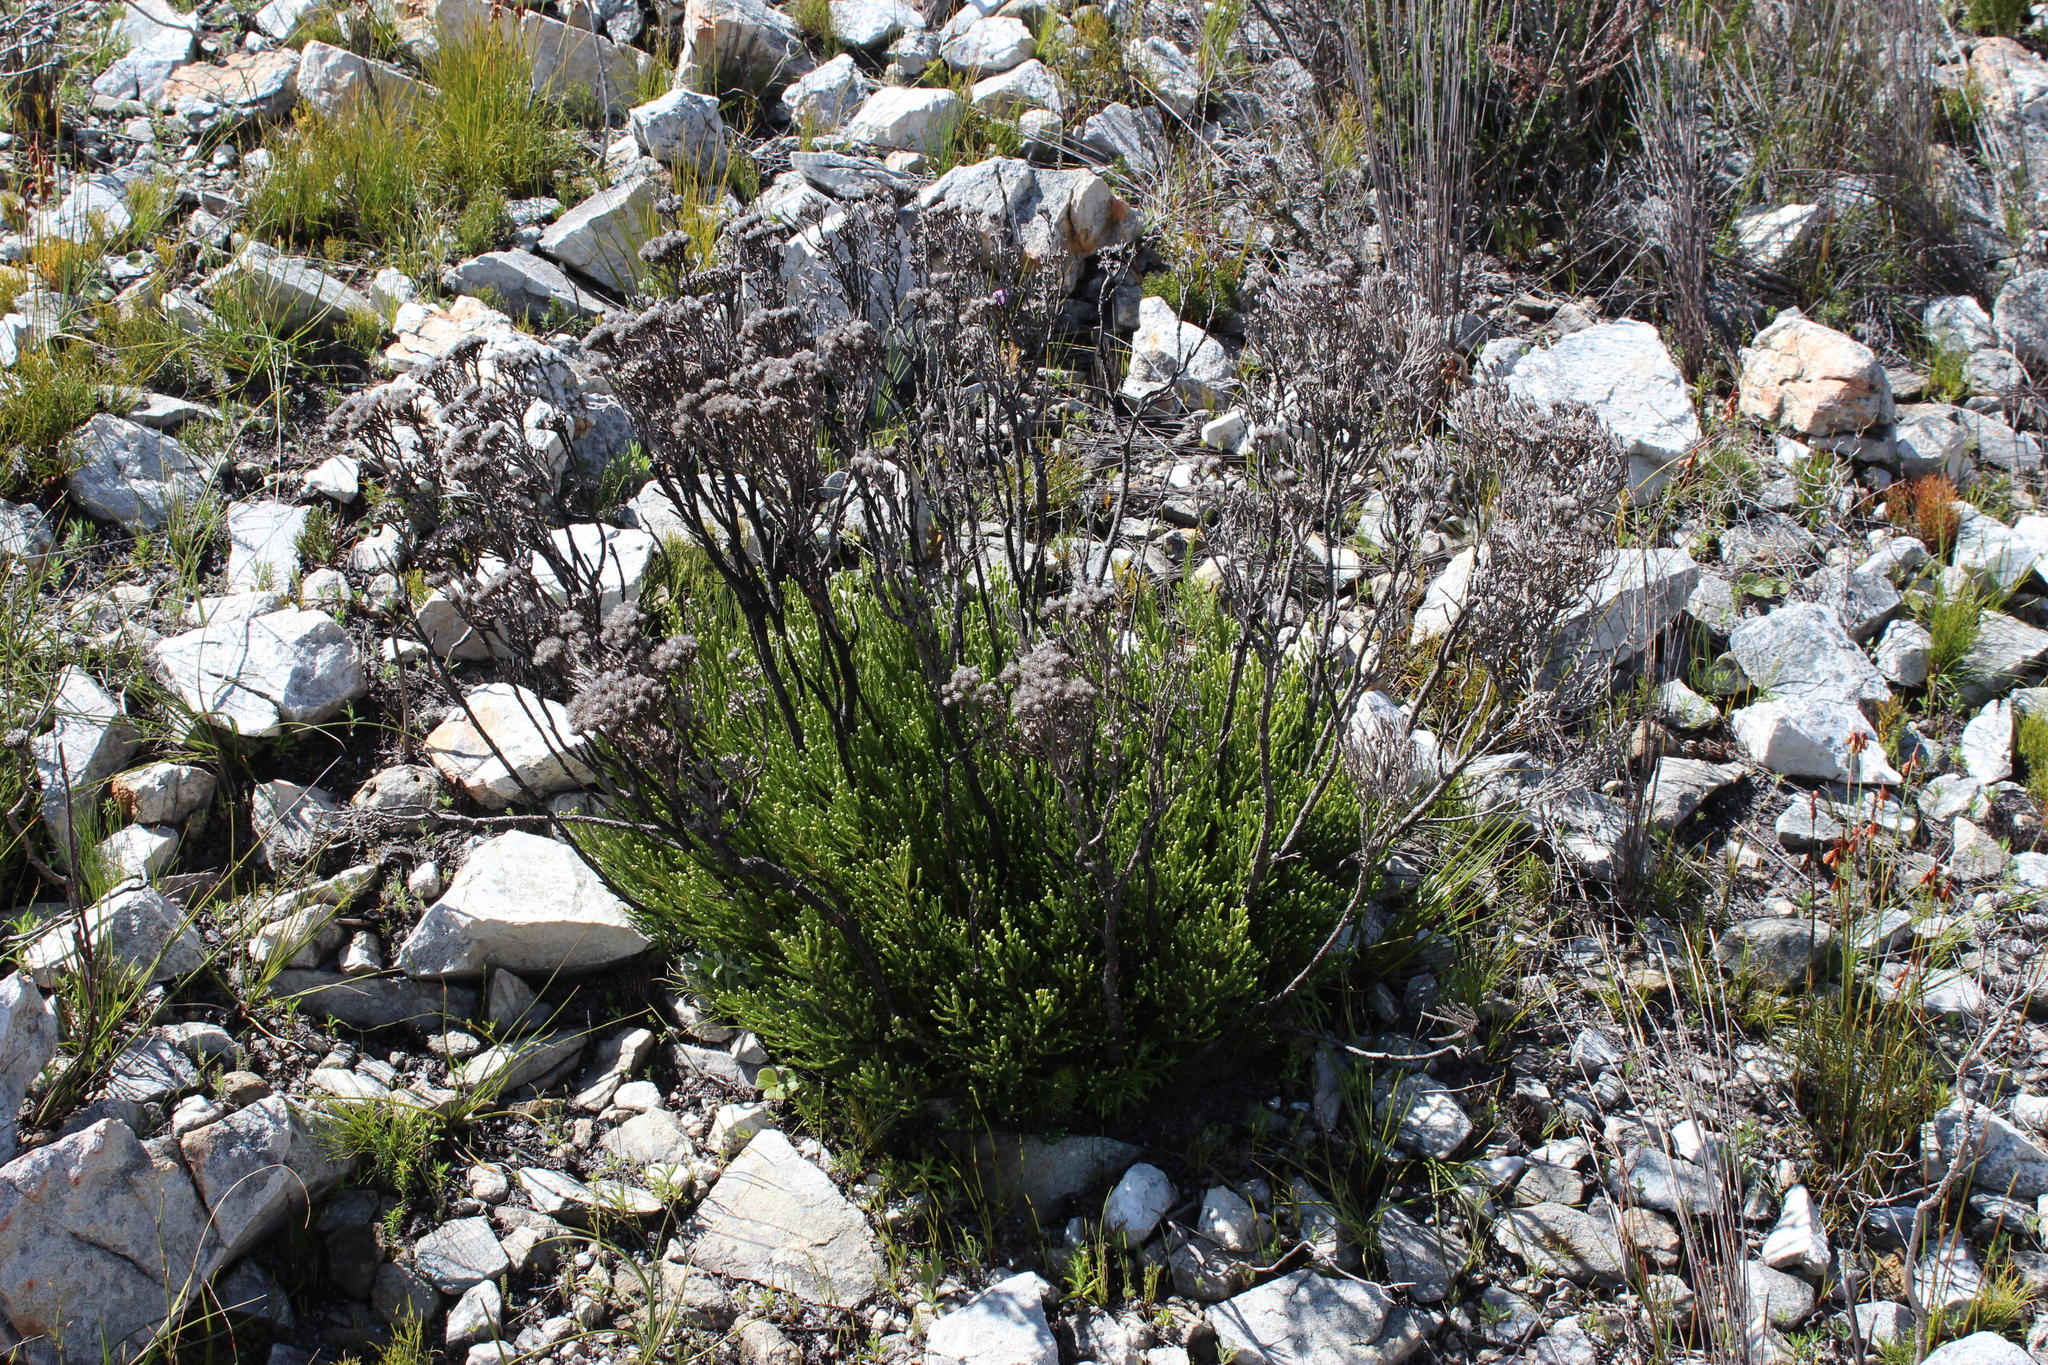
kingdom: Plantae
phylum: Tracheophyta
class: Magnoliopsida
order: Bruniales
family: Bruniaceae
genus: Brunia
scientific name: Brunia paleacea
